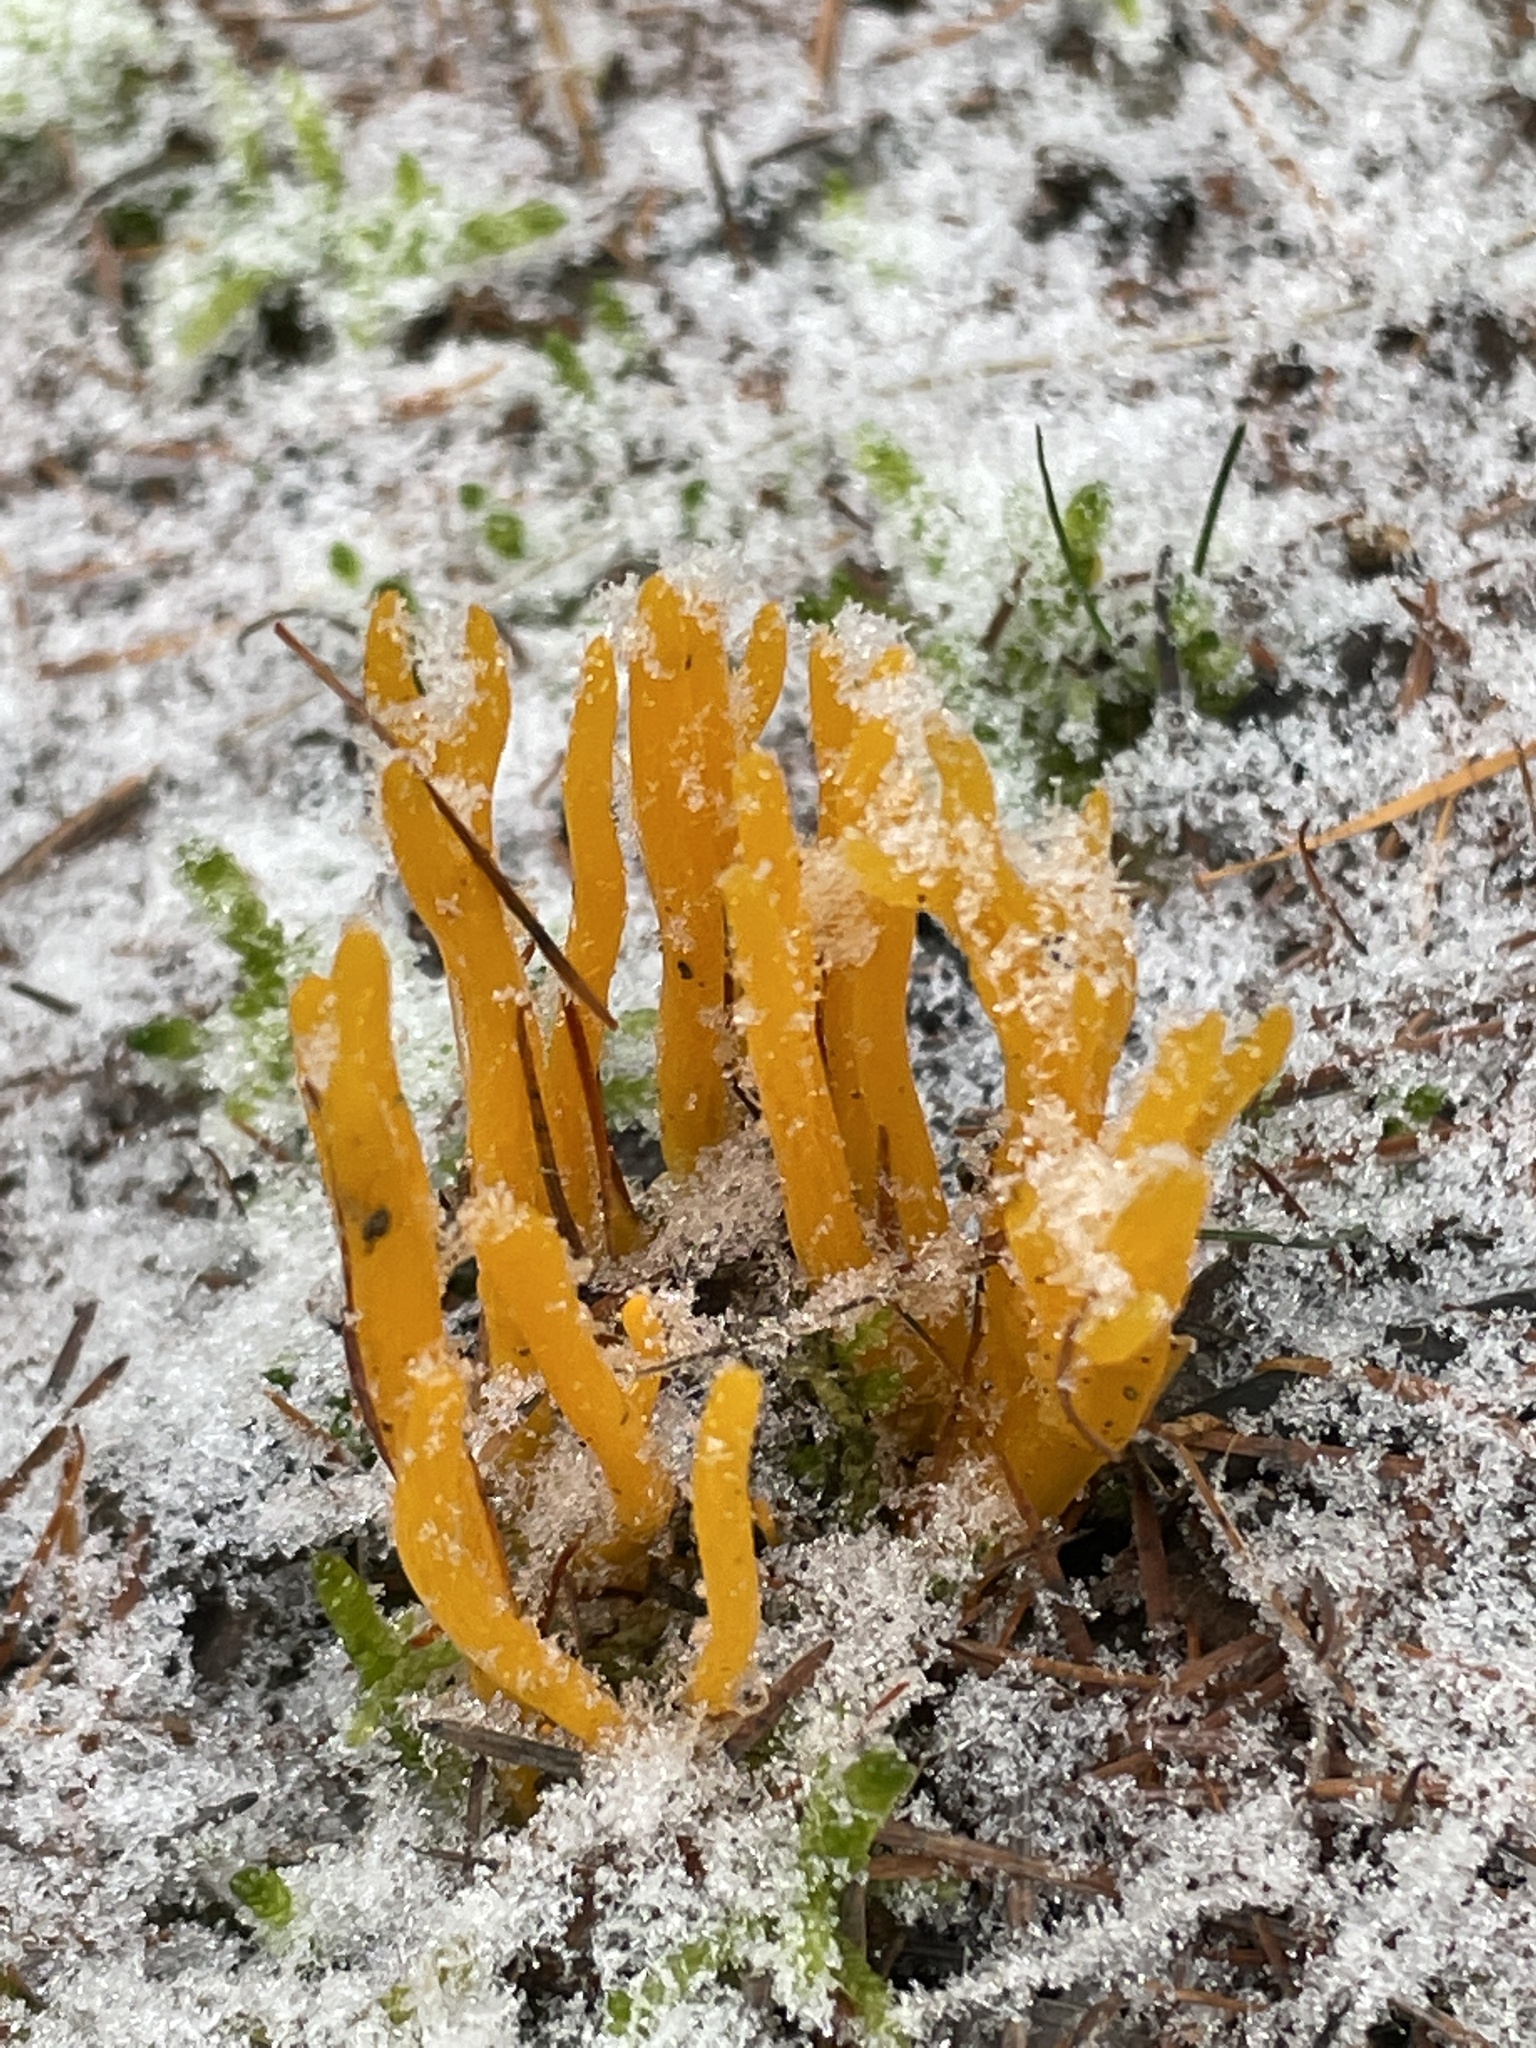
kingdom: Fungi
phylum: Basidiomycota
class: Dacrymycetes
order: Dacrymycetales
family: Dacrymycetaceae
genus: Calocera
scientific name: Calocera viscosa
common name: Yellow stagshorn
